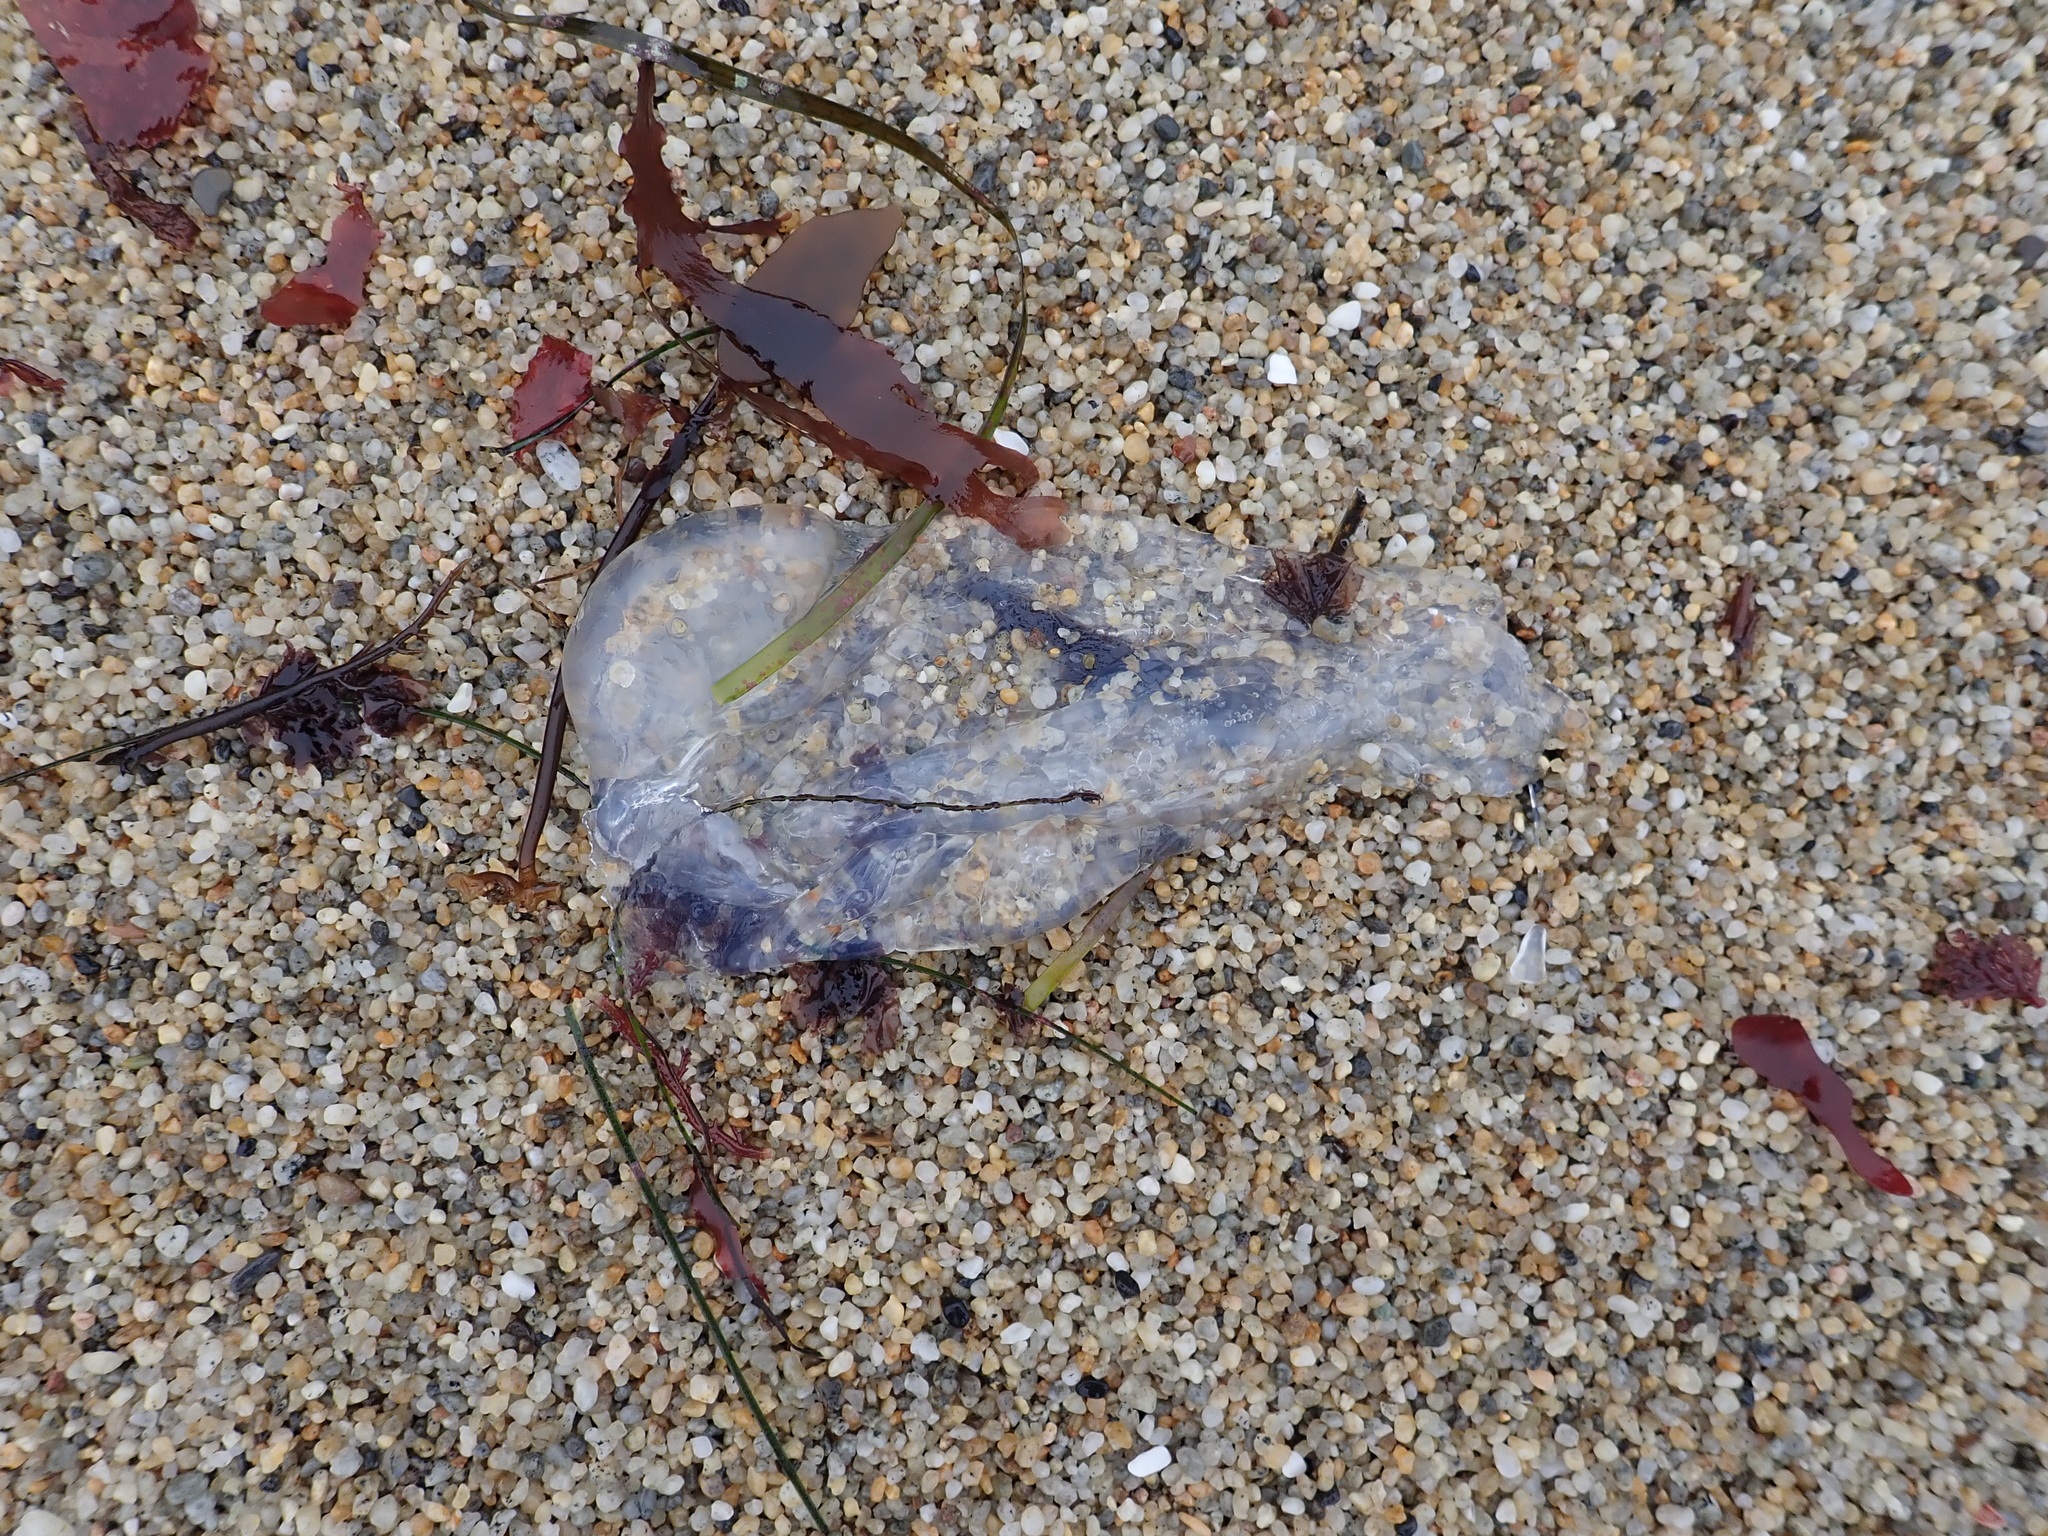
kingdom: Animalia
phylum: Cnidaria
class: Scyphozoa
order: Semaeostomeae
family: Ulmaridae
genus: Aurelia
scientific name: Aurelia labiata
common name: Pacific moon jelly
